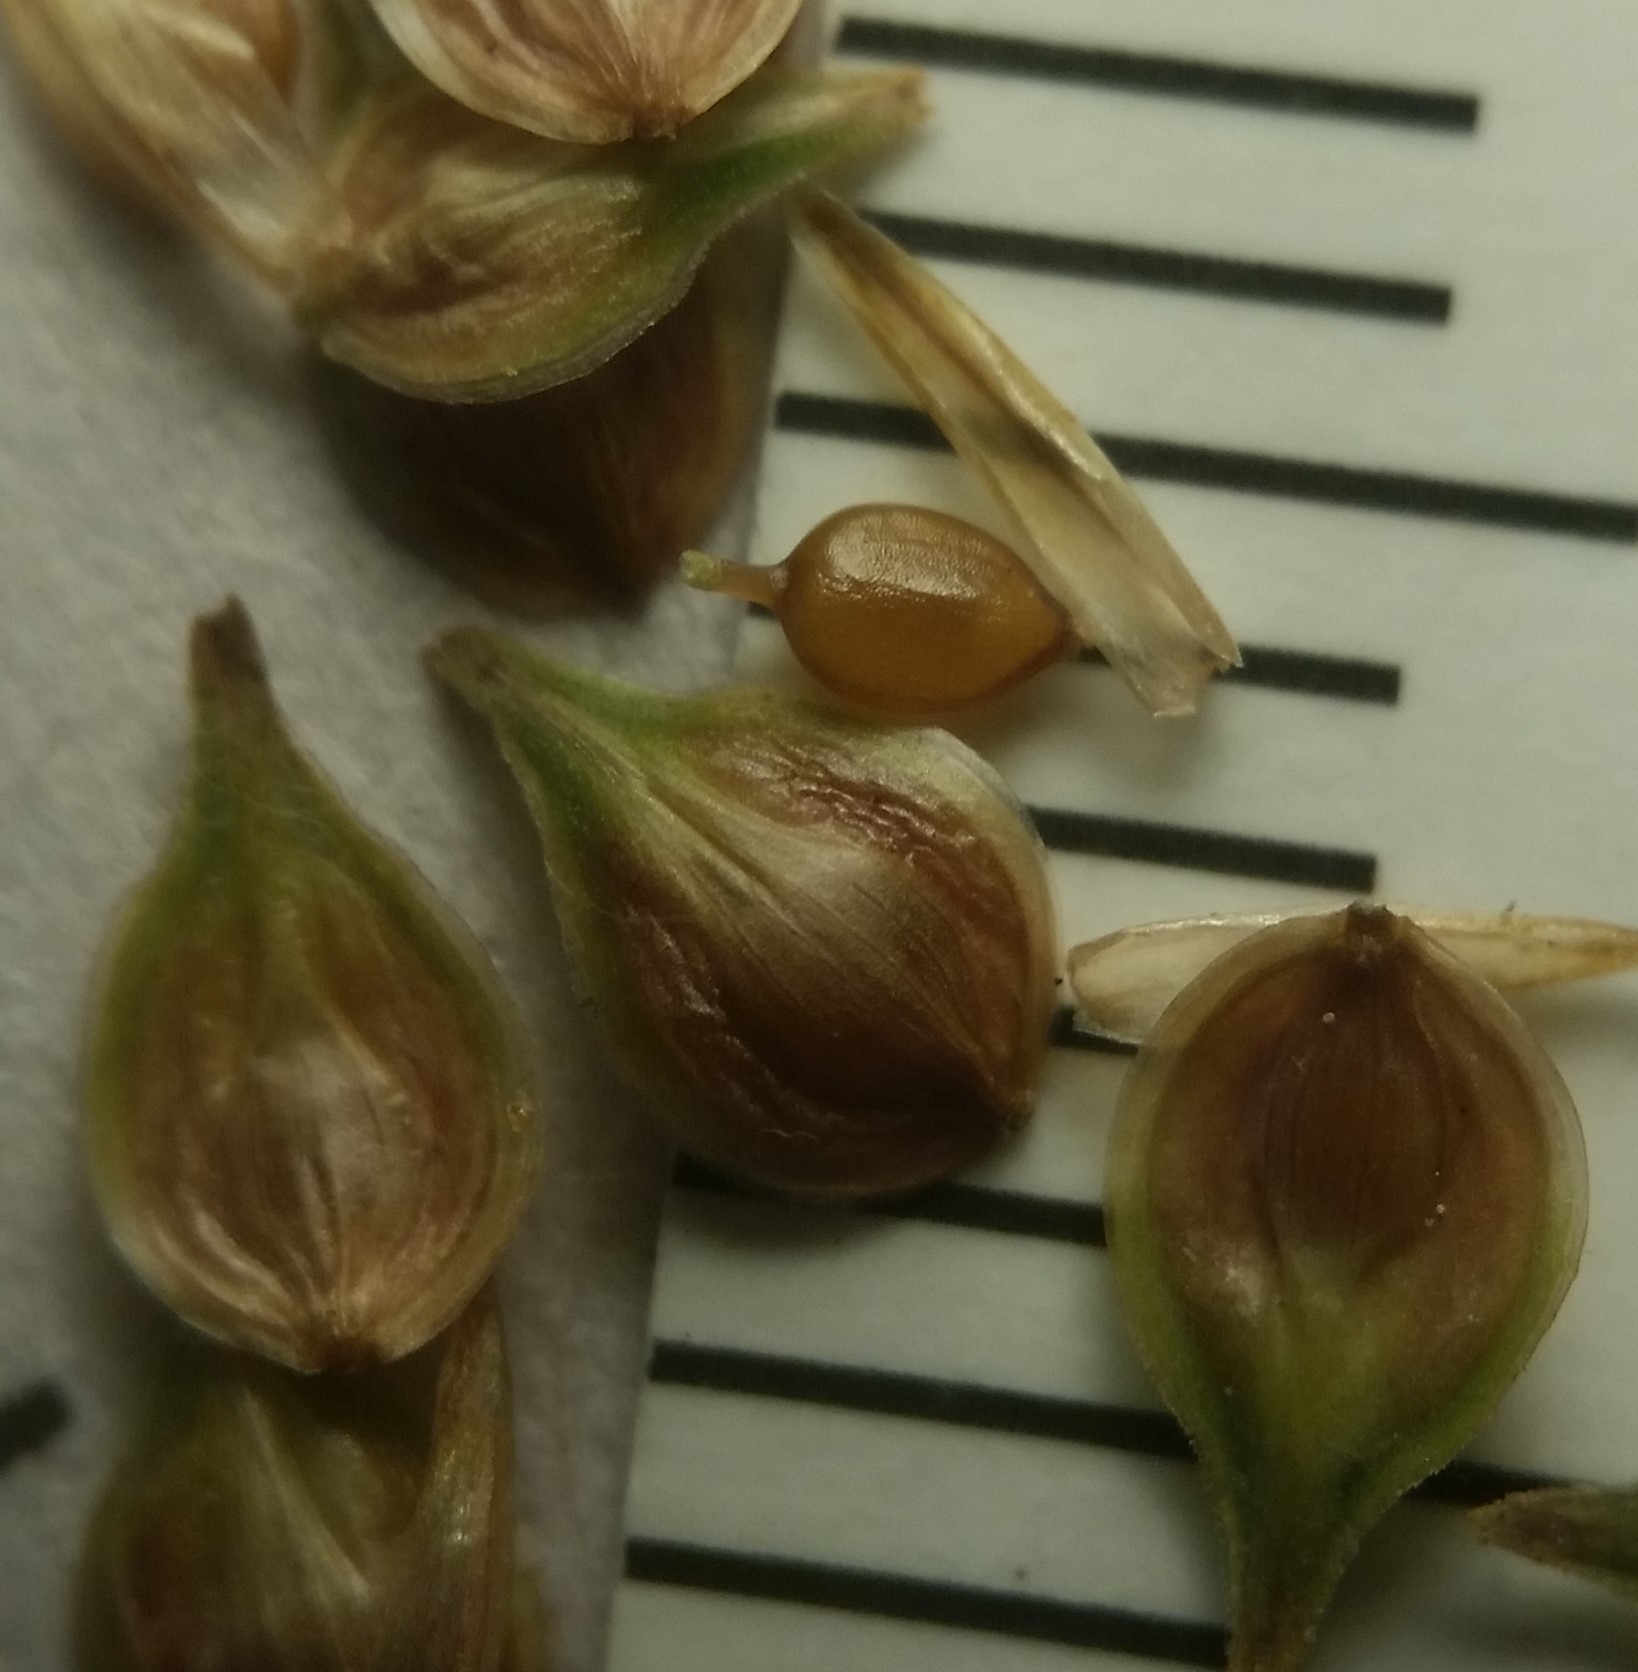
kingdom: Plantae
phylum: Tracheophyta
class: Liliopsida
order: Poales
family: Cyperaceae
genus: Carex
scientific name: Carex molesta
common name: Troublesome sedge
